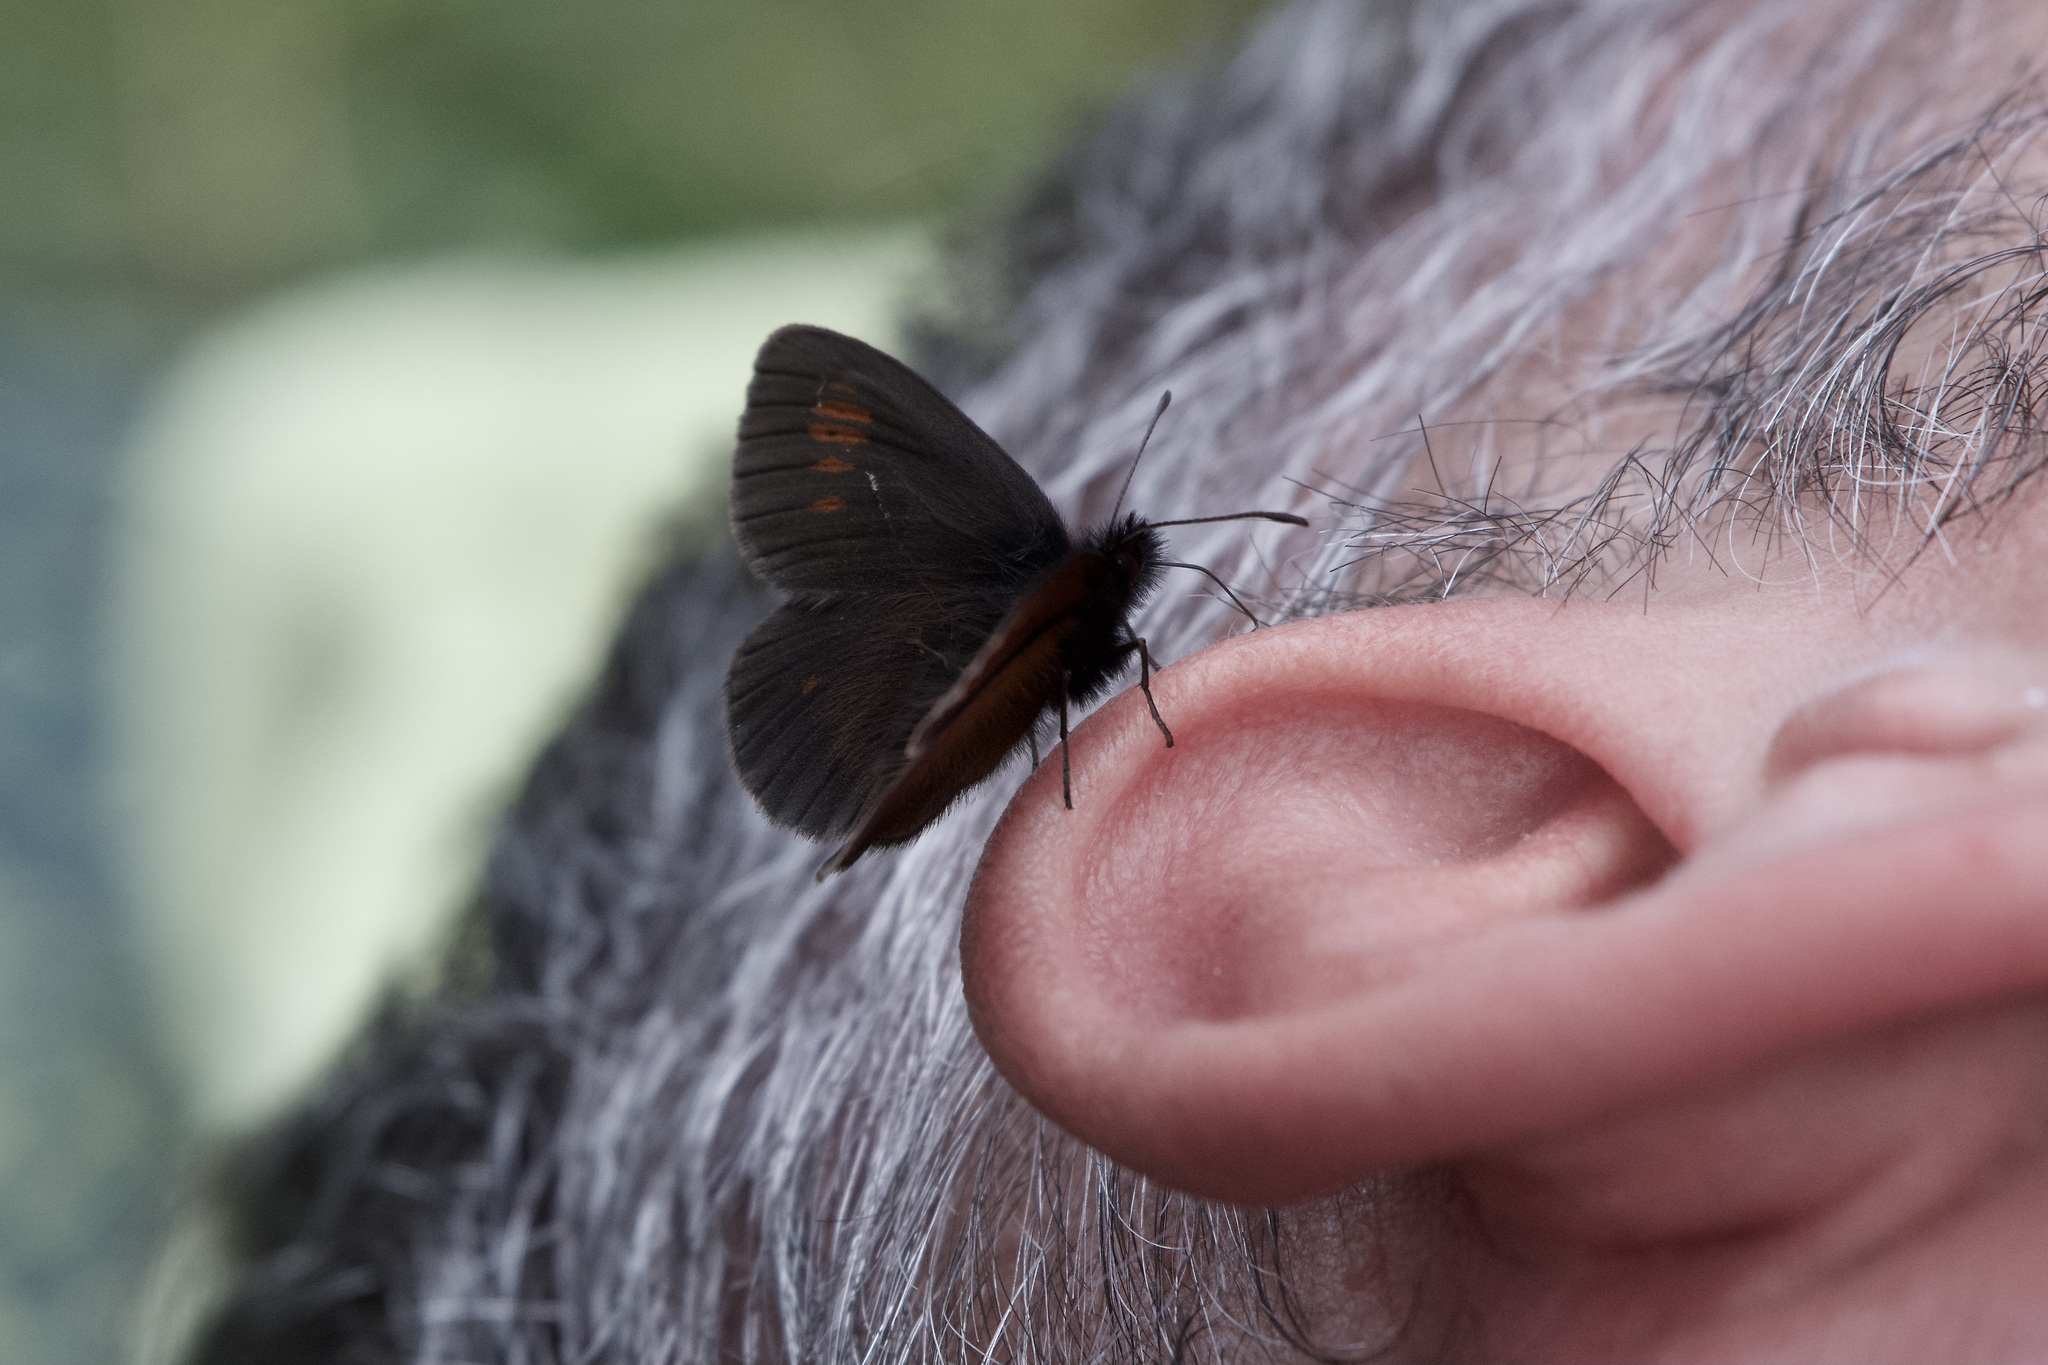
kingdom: Animalia
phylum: Arthropoda
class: Insecta
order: Lepidoptera
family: Nymphalidae
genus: Erebia
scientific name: Erebia manto
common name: Yellow-spotted ringlet
